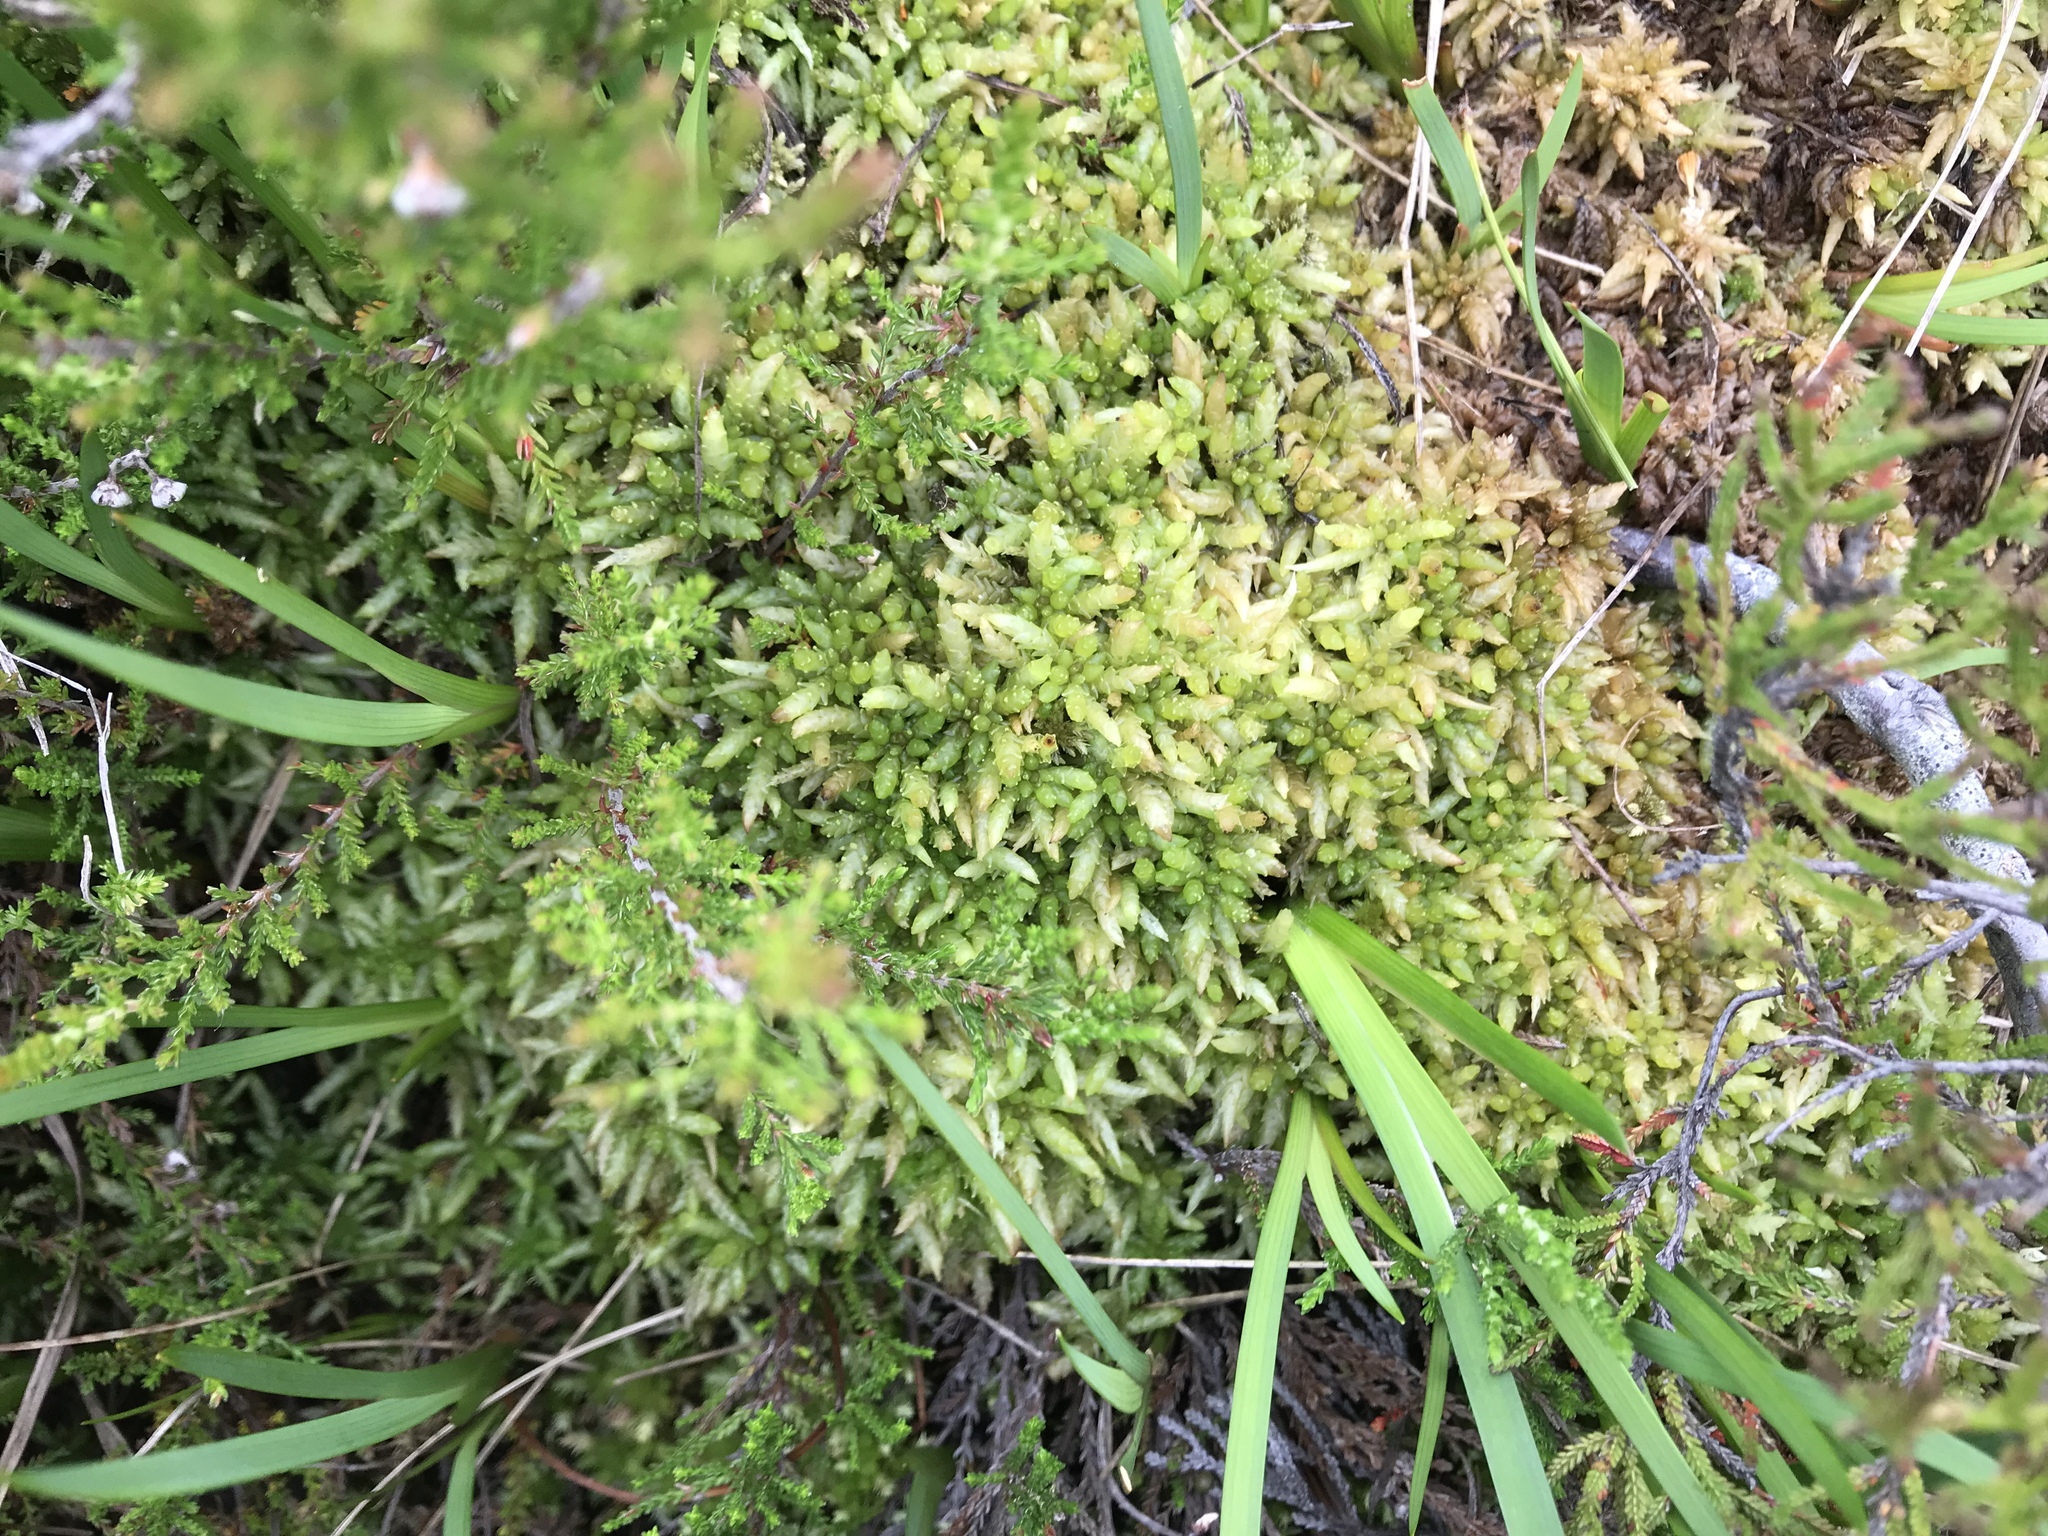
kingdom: Plantae
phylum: Bryophyta
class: Sphagnopsida
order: Sphagnales
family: Sphagnaceae
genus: Sphagnum
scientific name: Sphagnum papillosum
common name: Papillose peat moss
